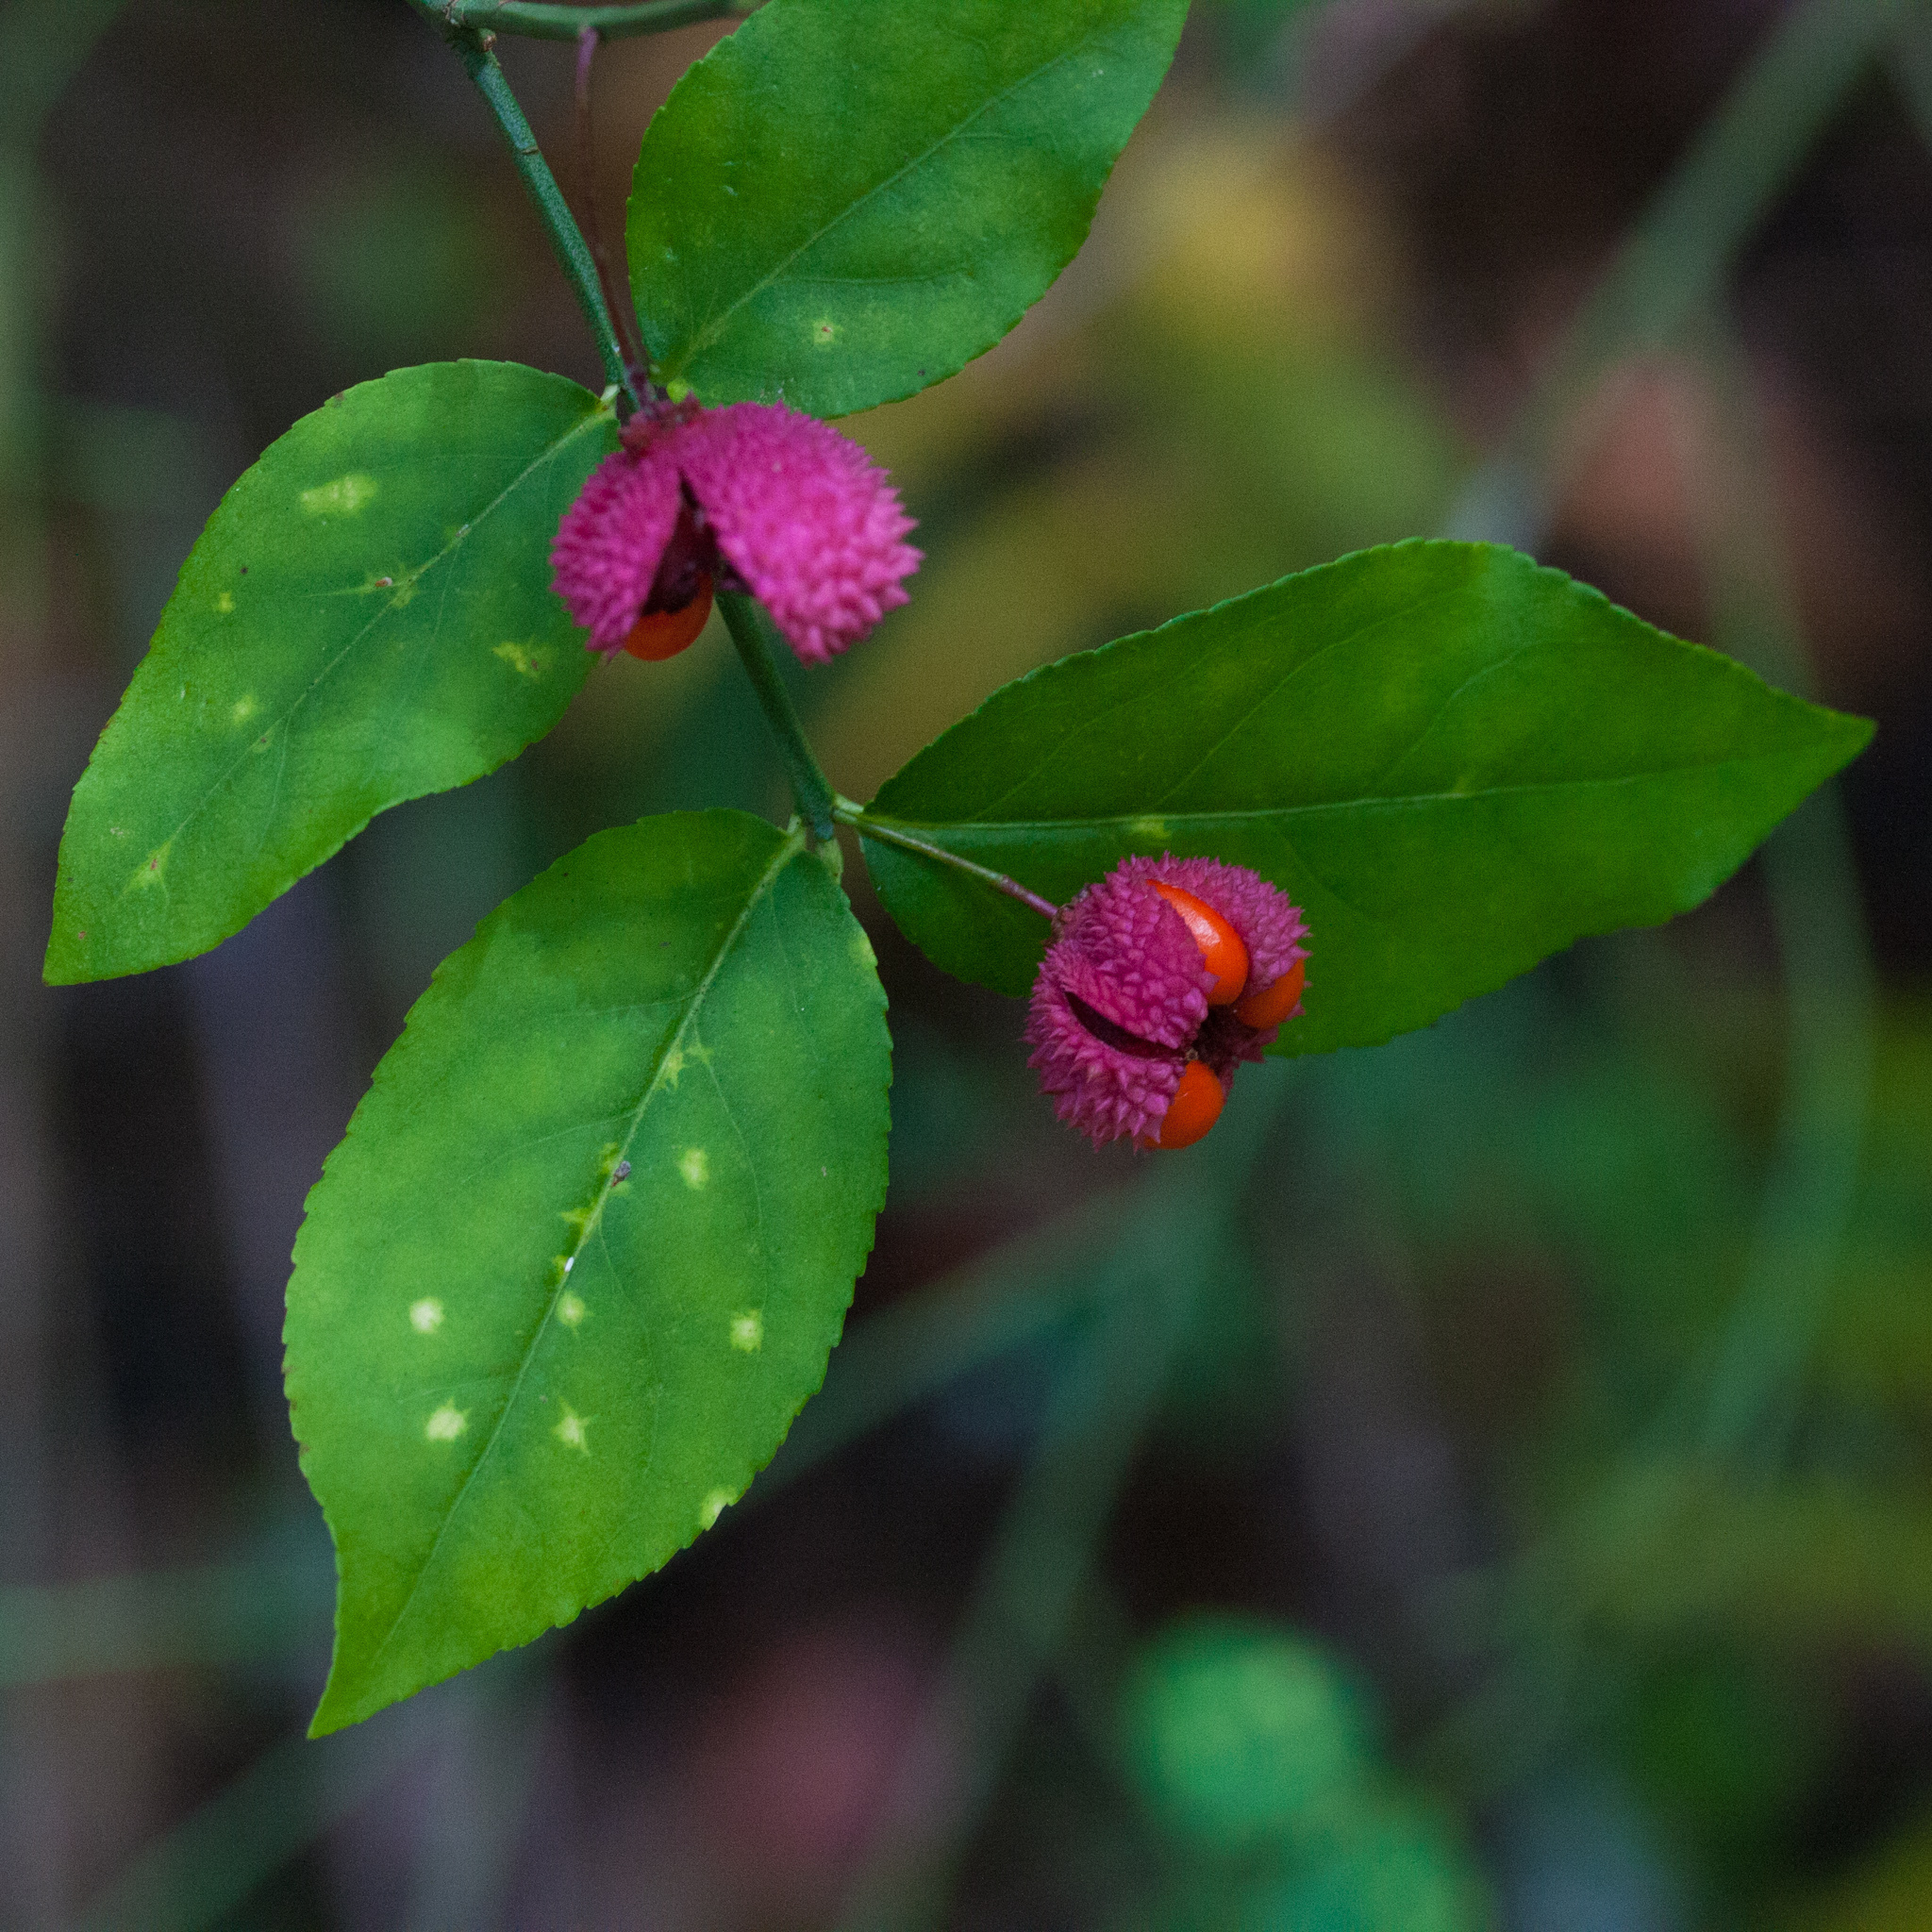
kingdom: Plantae
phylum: Tracheophyta
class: Magnoliopsida
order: Celastrales
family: Celastraceae
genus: Euonymus
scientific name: Euonymus americanus
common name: Bursting-heart
